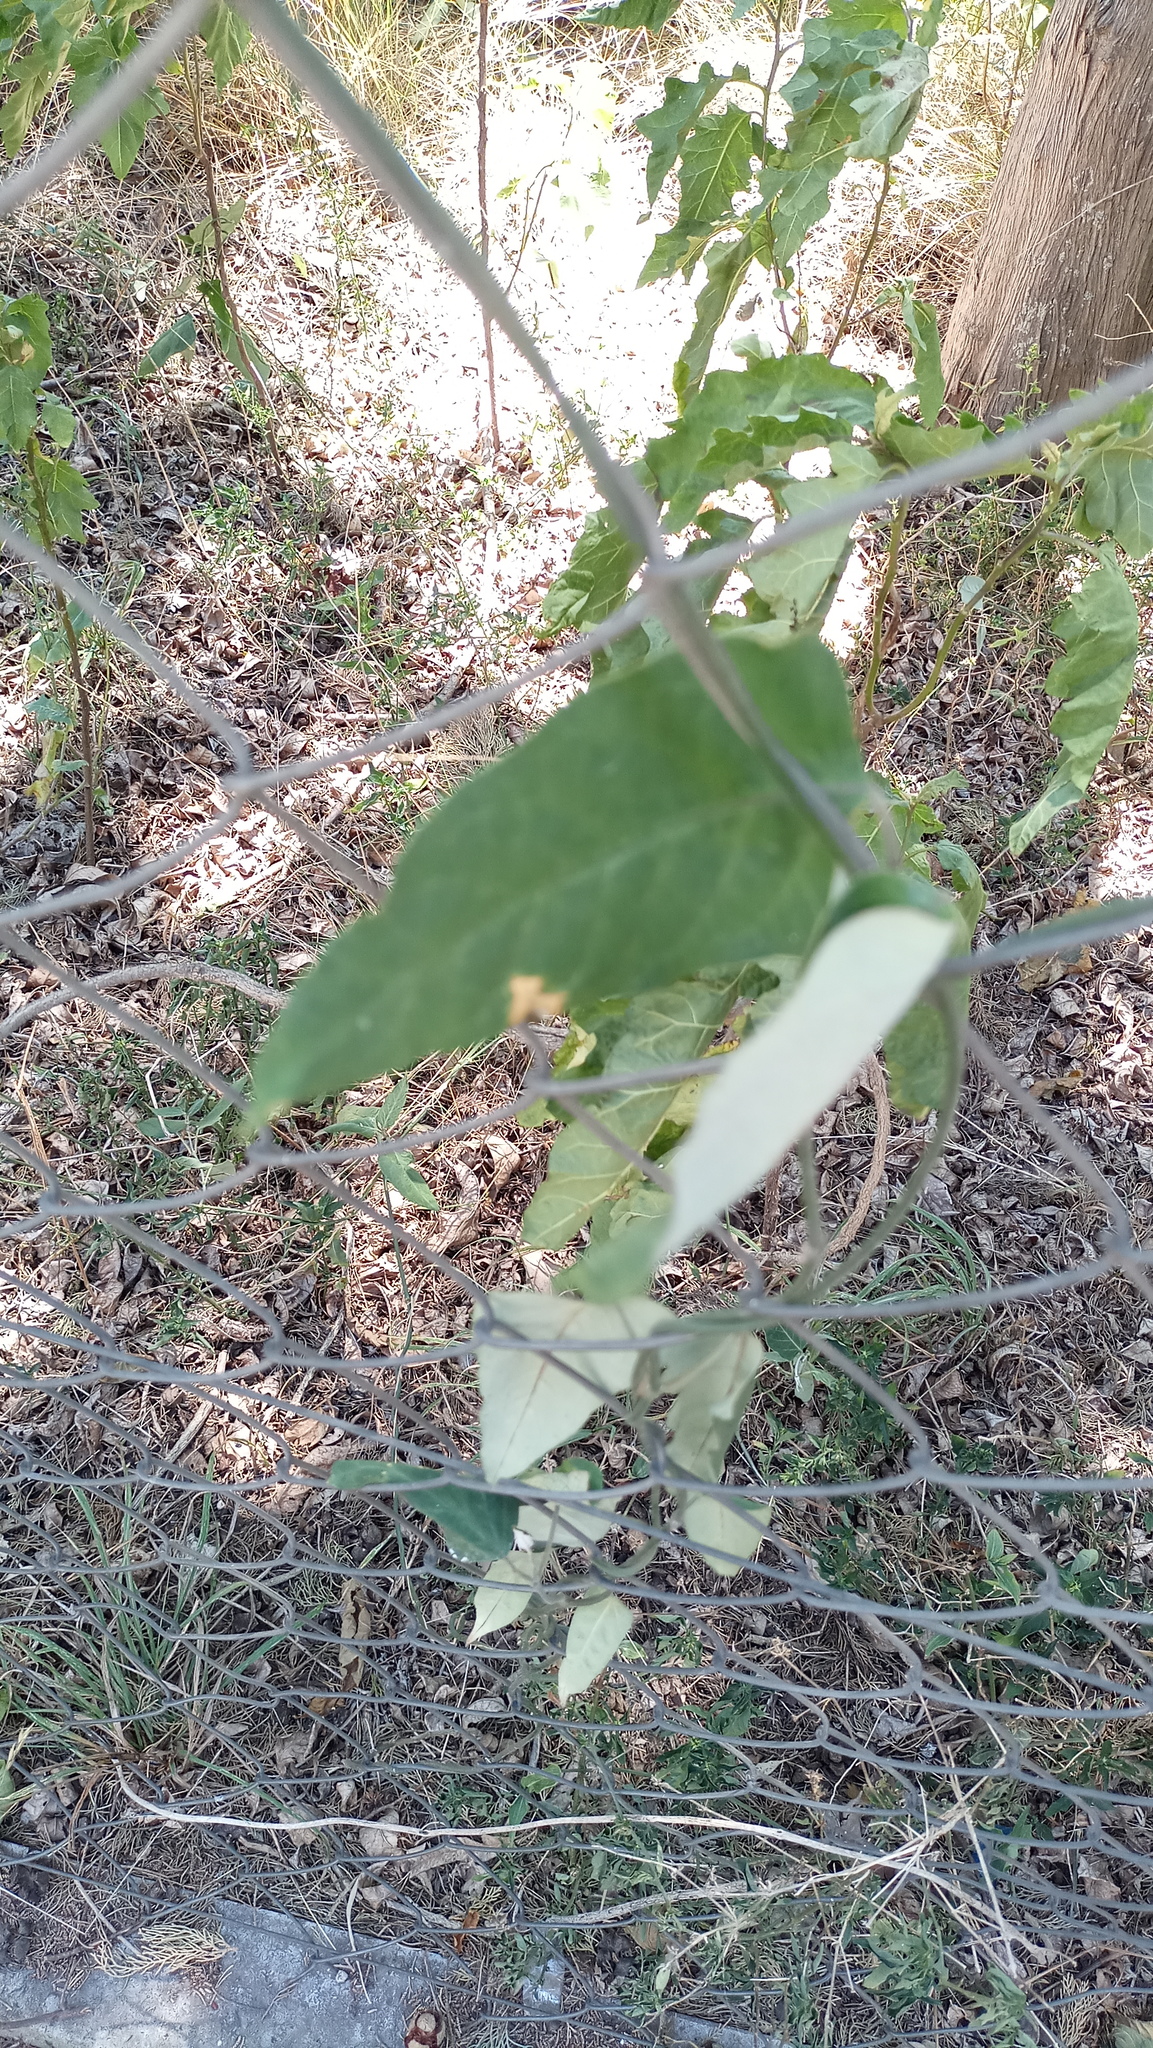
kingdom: Plantae
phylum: Tracheophyta
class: Magnoliopsida
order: Gentianales
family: Apocynaceae
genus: Araujia
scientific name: Araujia sericifera
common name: White bladderflower
